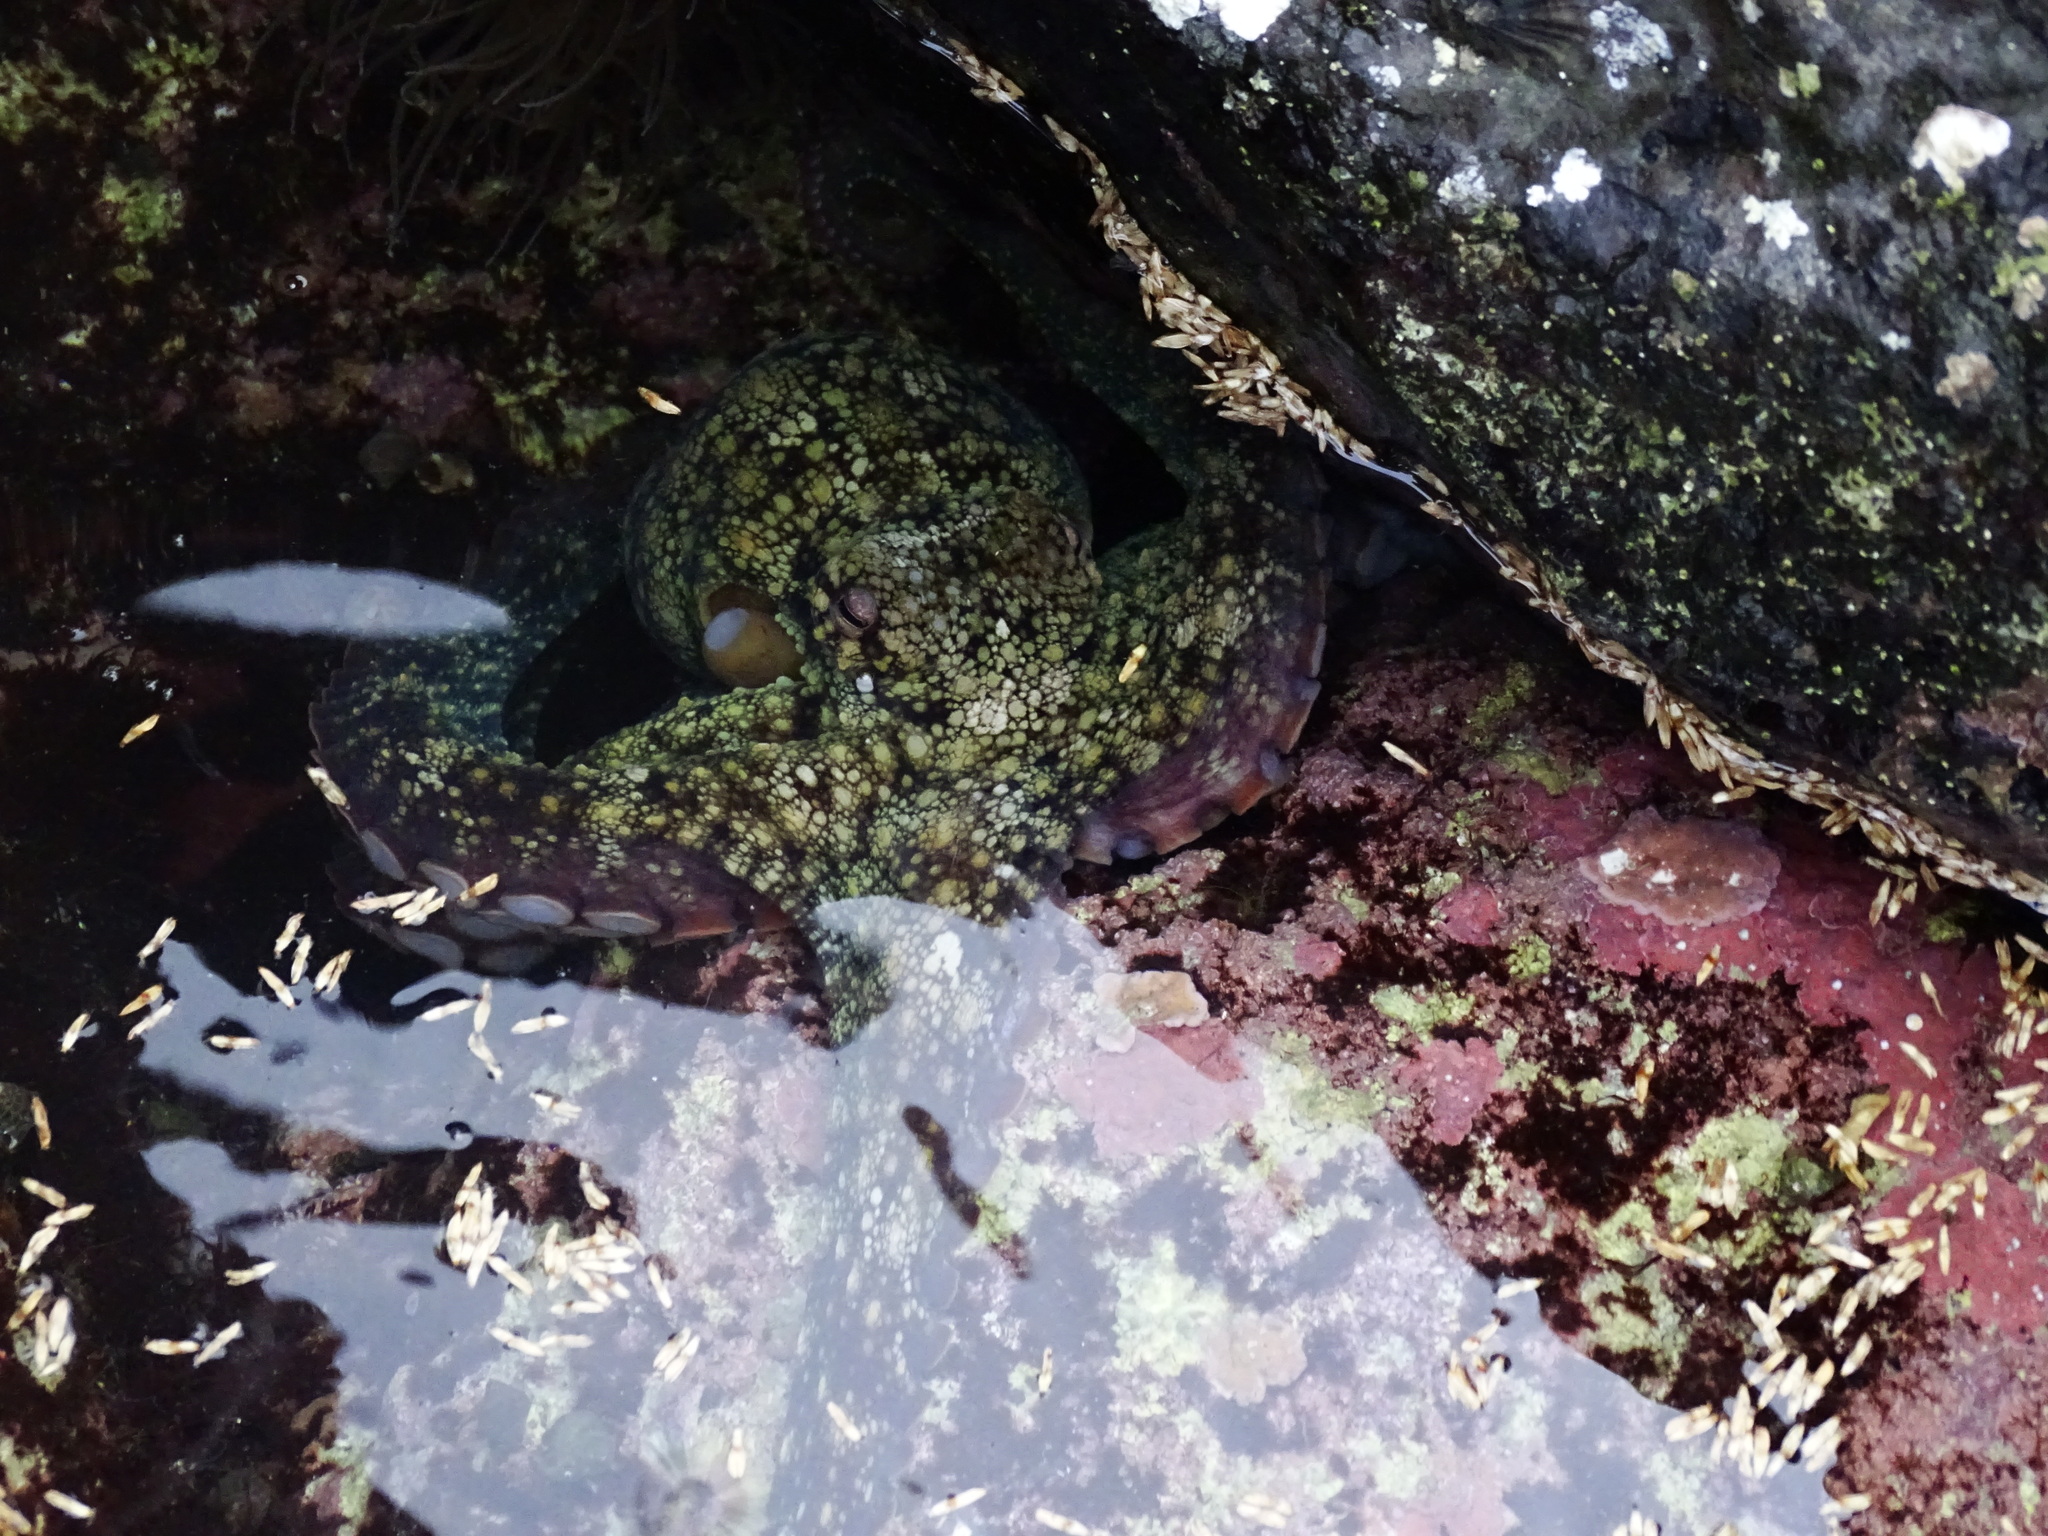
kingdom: Animalia
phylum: Mollusca
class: Cephalopoda
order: Octopoda
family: Octopodidae
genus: Octopus
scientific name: Octopus vulgaris
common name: Common octopus
